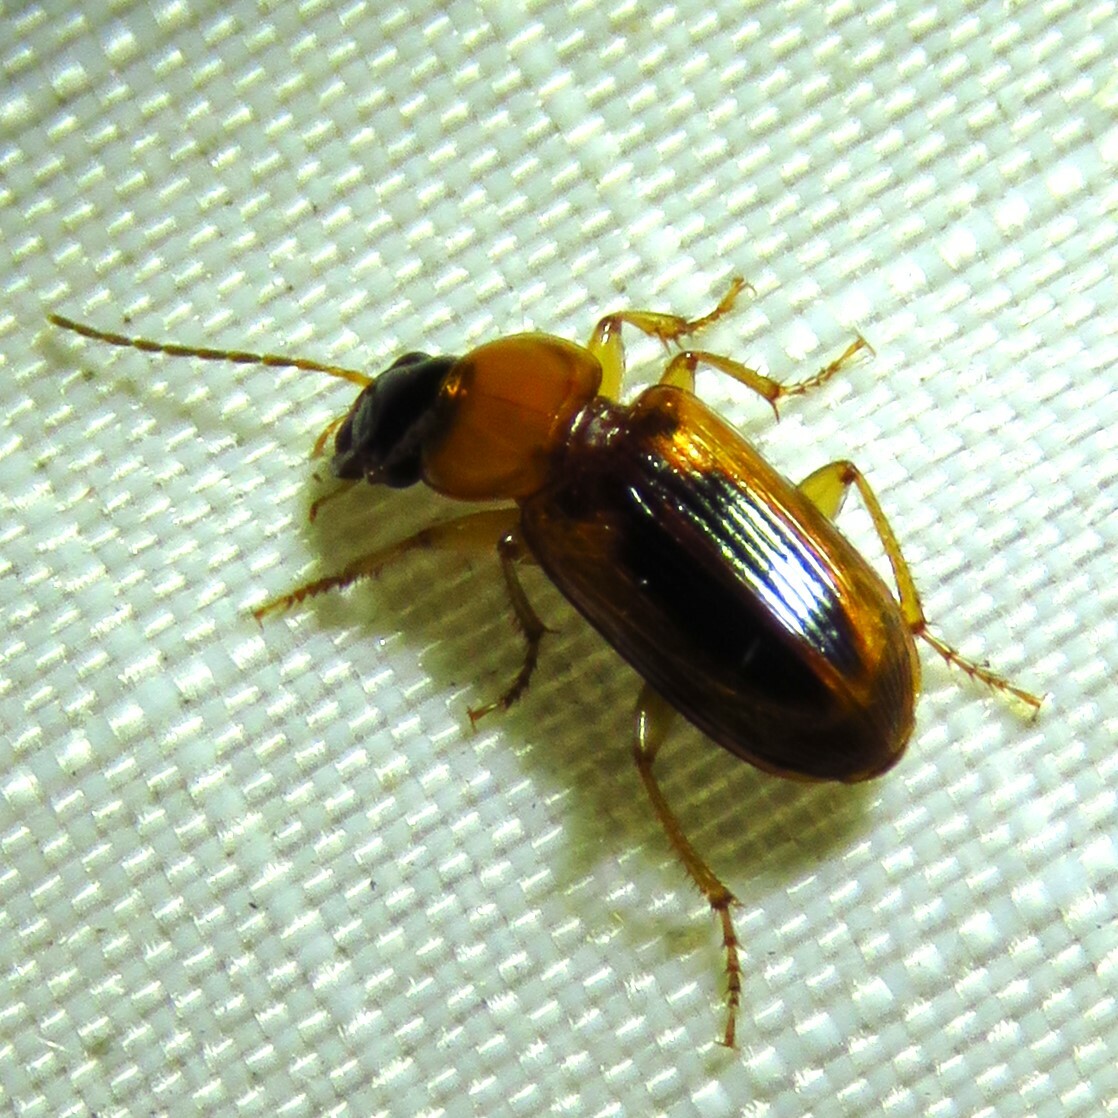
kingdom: Animalia
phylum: Arthropoda
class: Insecta
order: Coleoptera
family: Carabidae
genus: Stenolophus
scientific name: Stenolophus dissimilis
